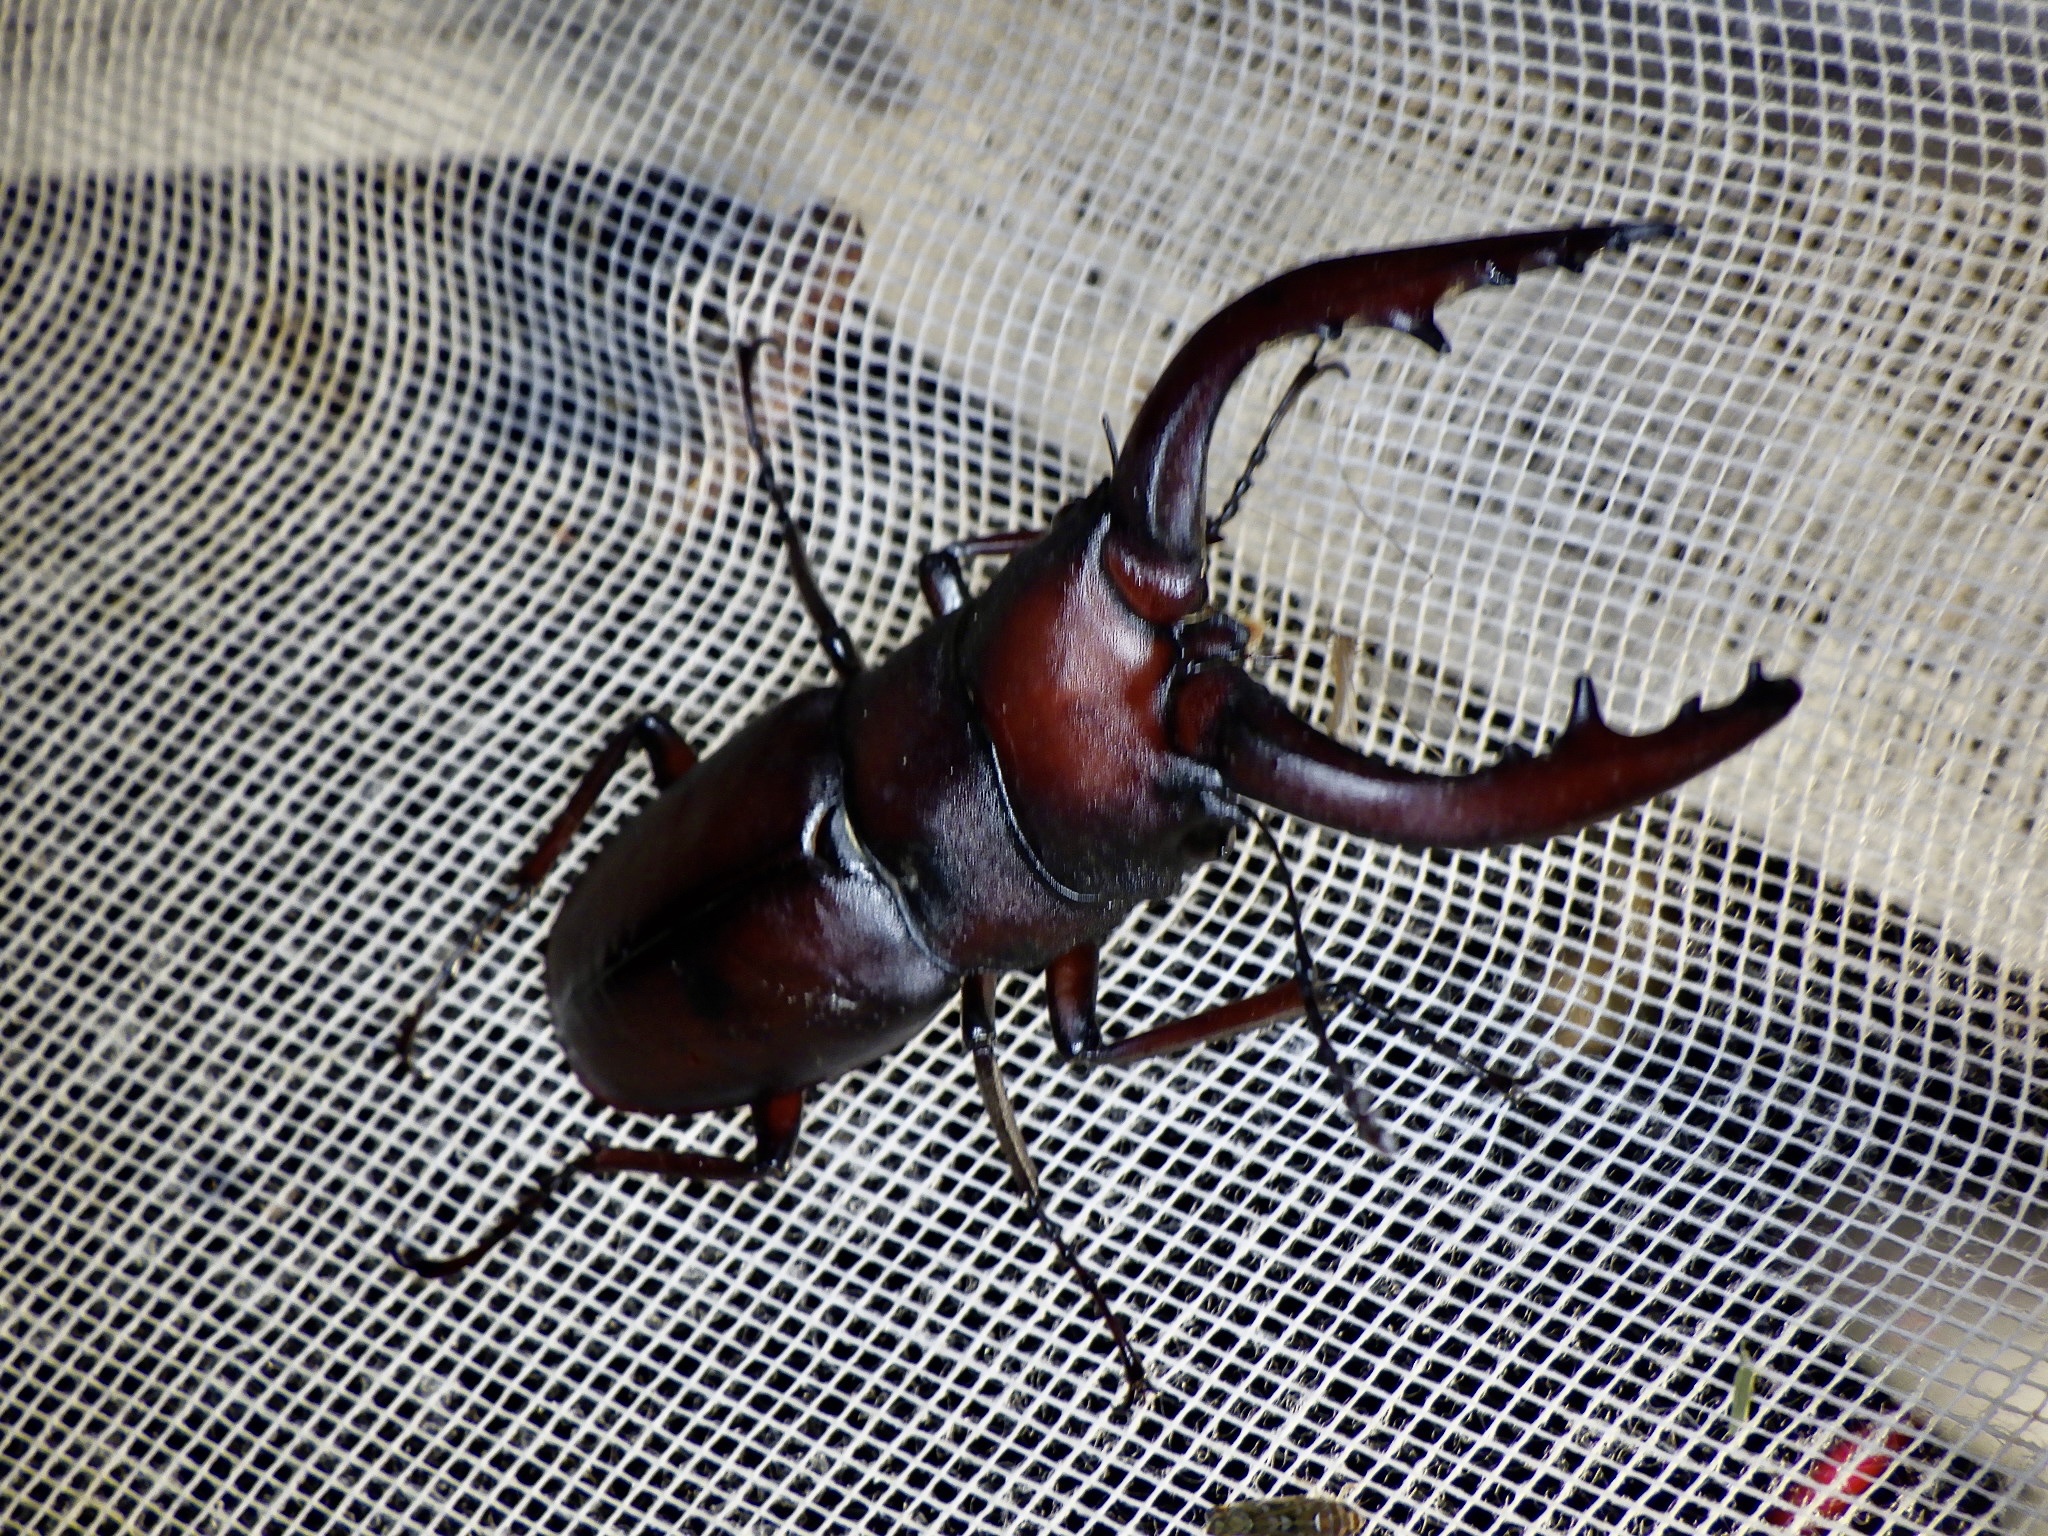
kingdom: Animalia
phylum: Arthropoda
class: Insecta
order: Coleoptera
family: Lucanidae
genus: Prosopocoilus
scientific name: Prosopocoilus inclinatus
